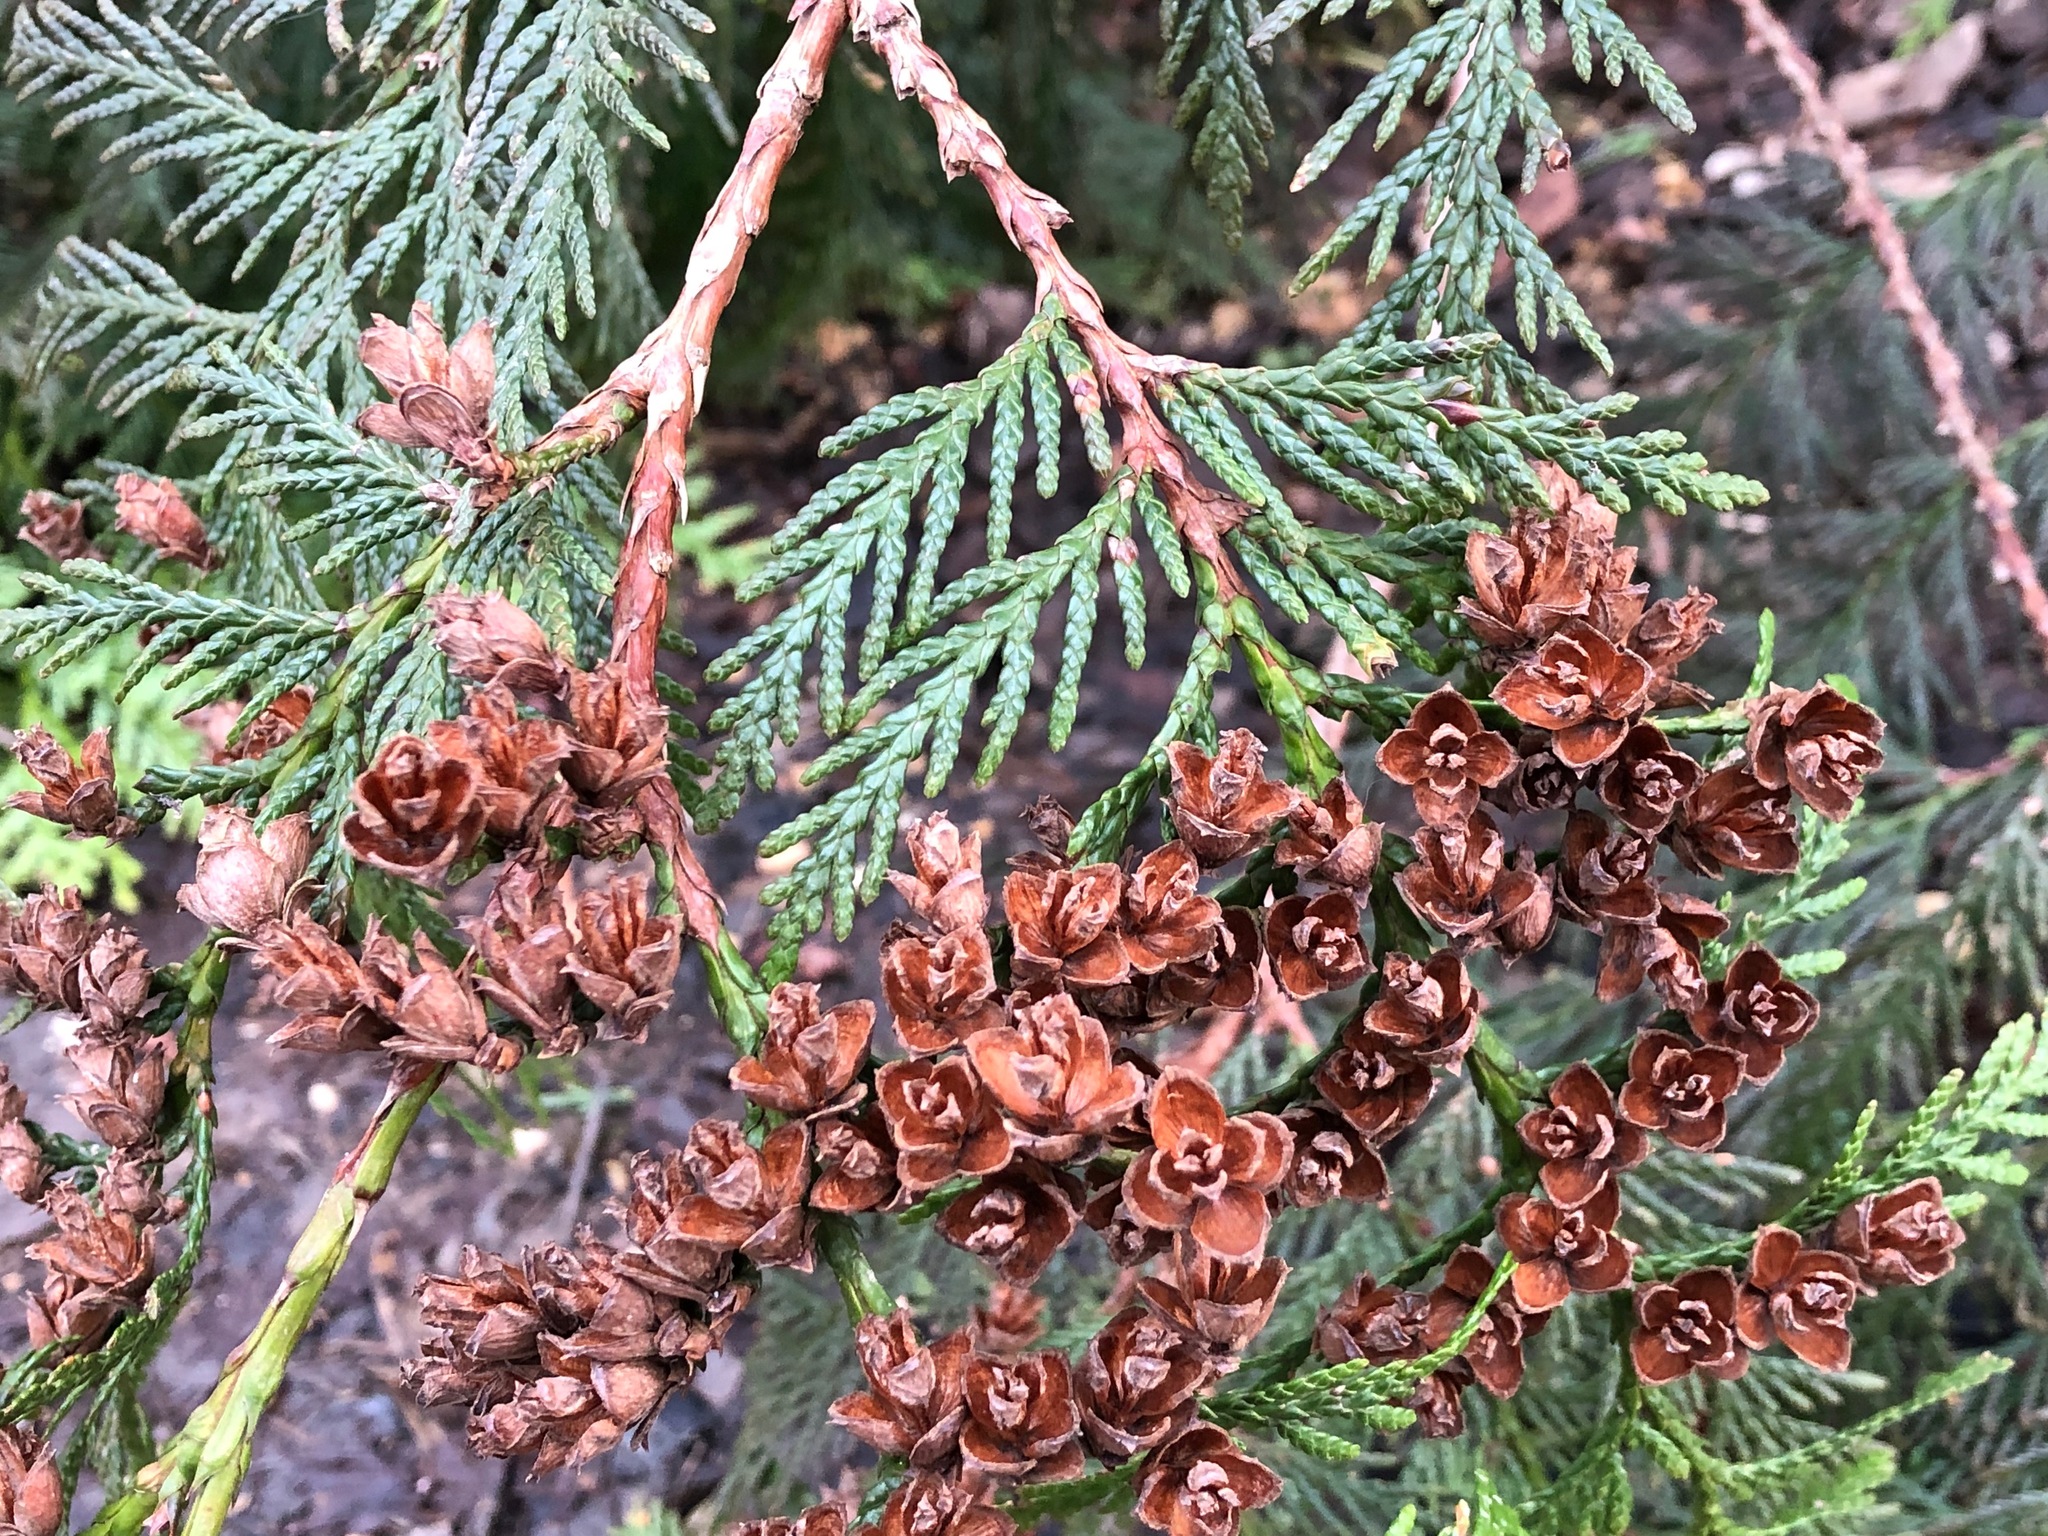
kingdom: Plantae
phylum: Tracheophyta
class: Pinopsida
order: Pinales
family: Cupressaceae
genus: Thuja
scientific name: Thuja plicata
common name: Western red-cedar
